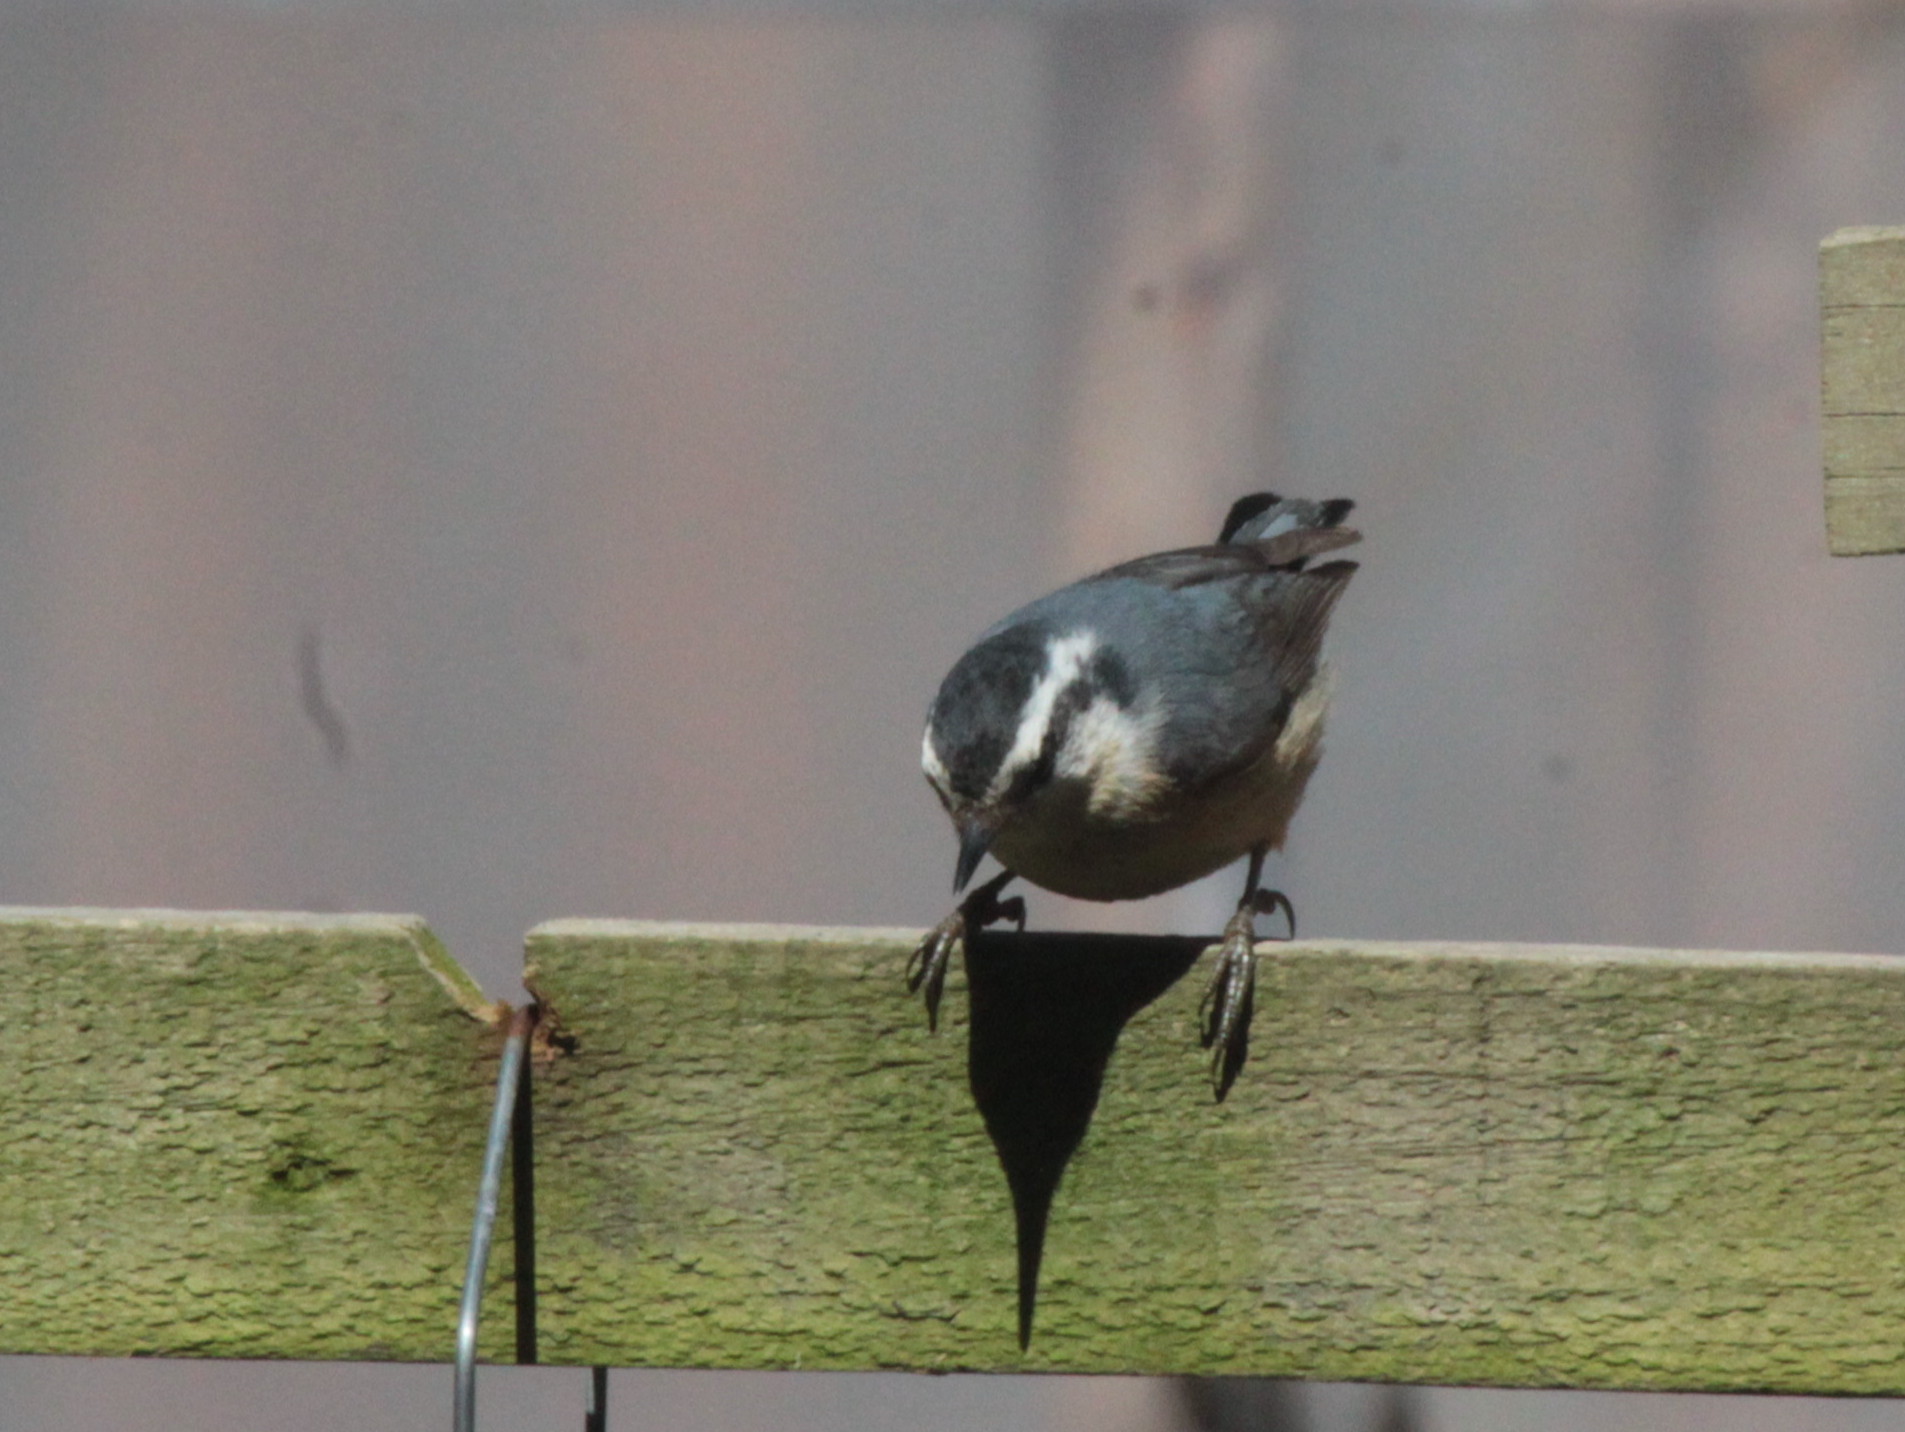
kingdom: Animalia
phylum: Chordata
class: Aves
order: Passeriformes
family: Sittidae
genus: Sitta
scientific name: Sitta canadensis
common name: Red-breasted nuthatch
